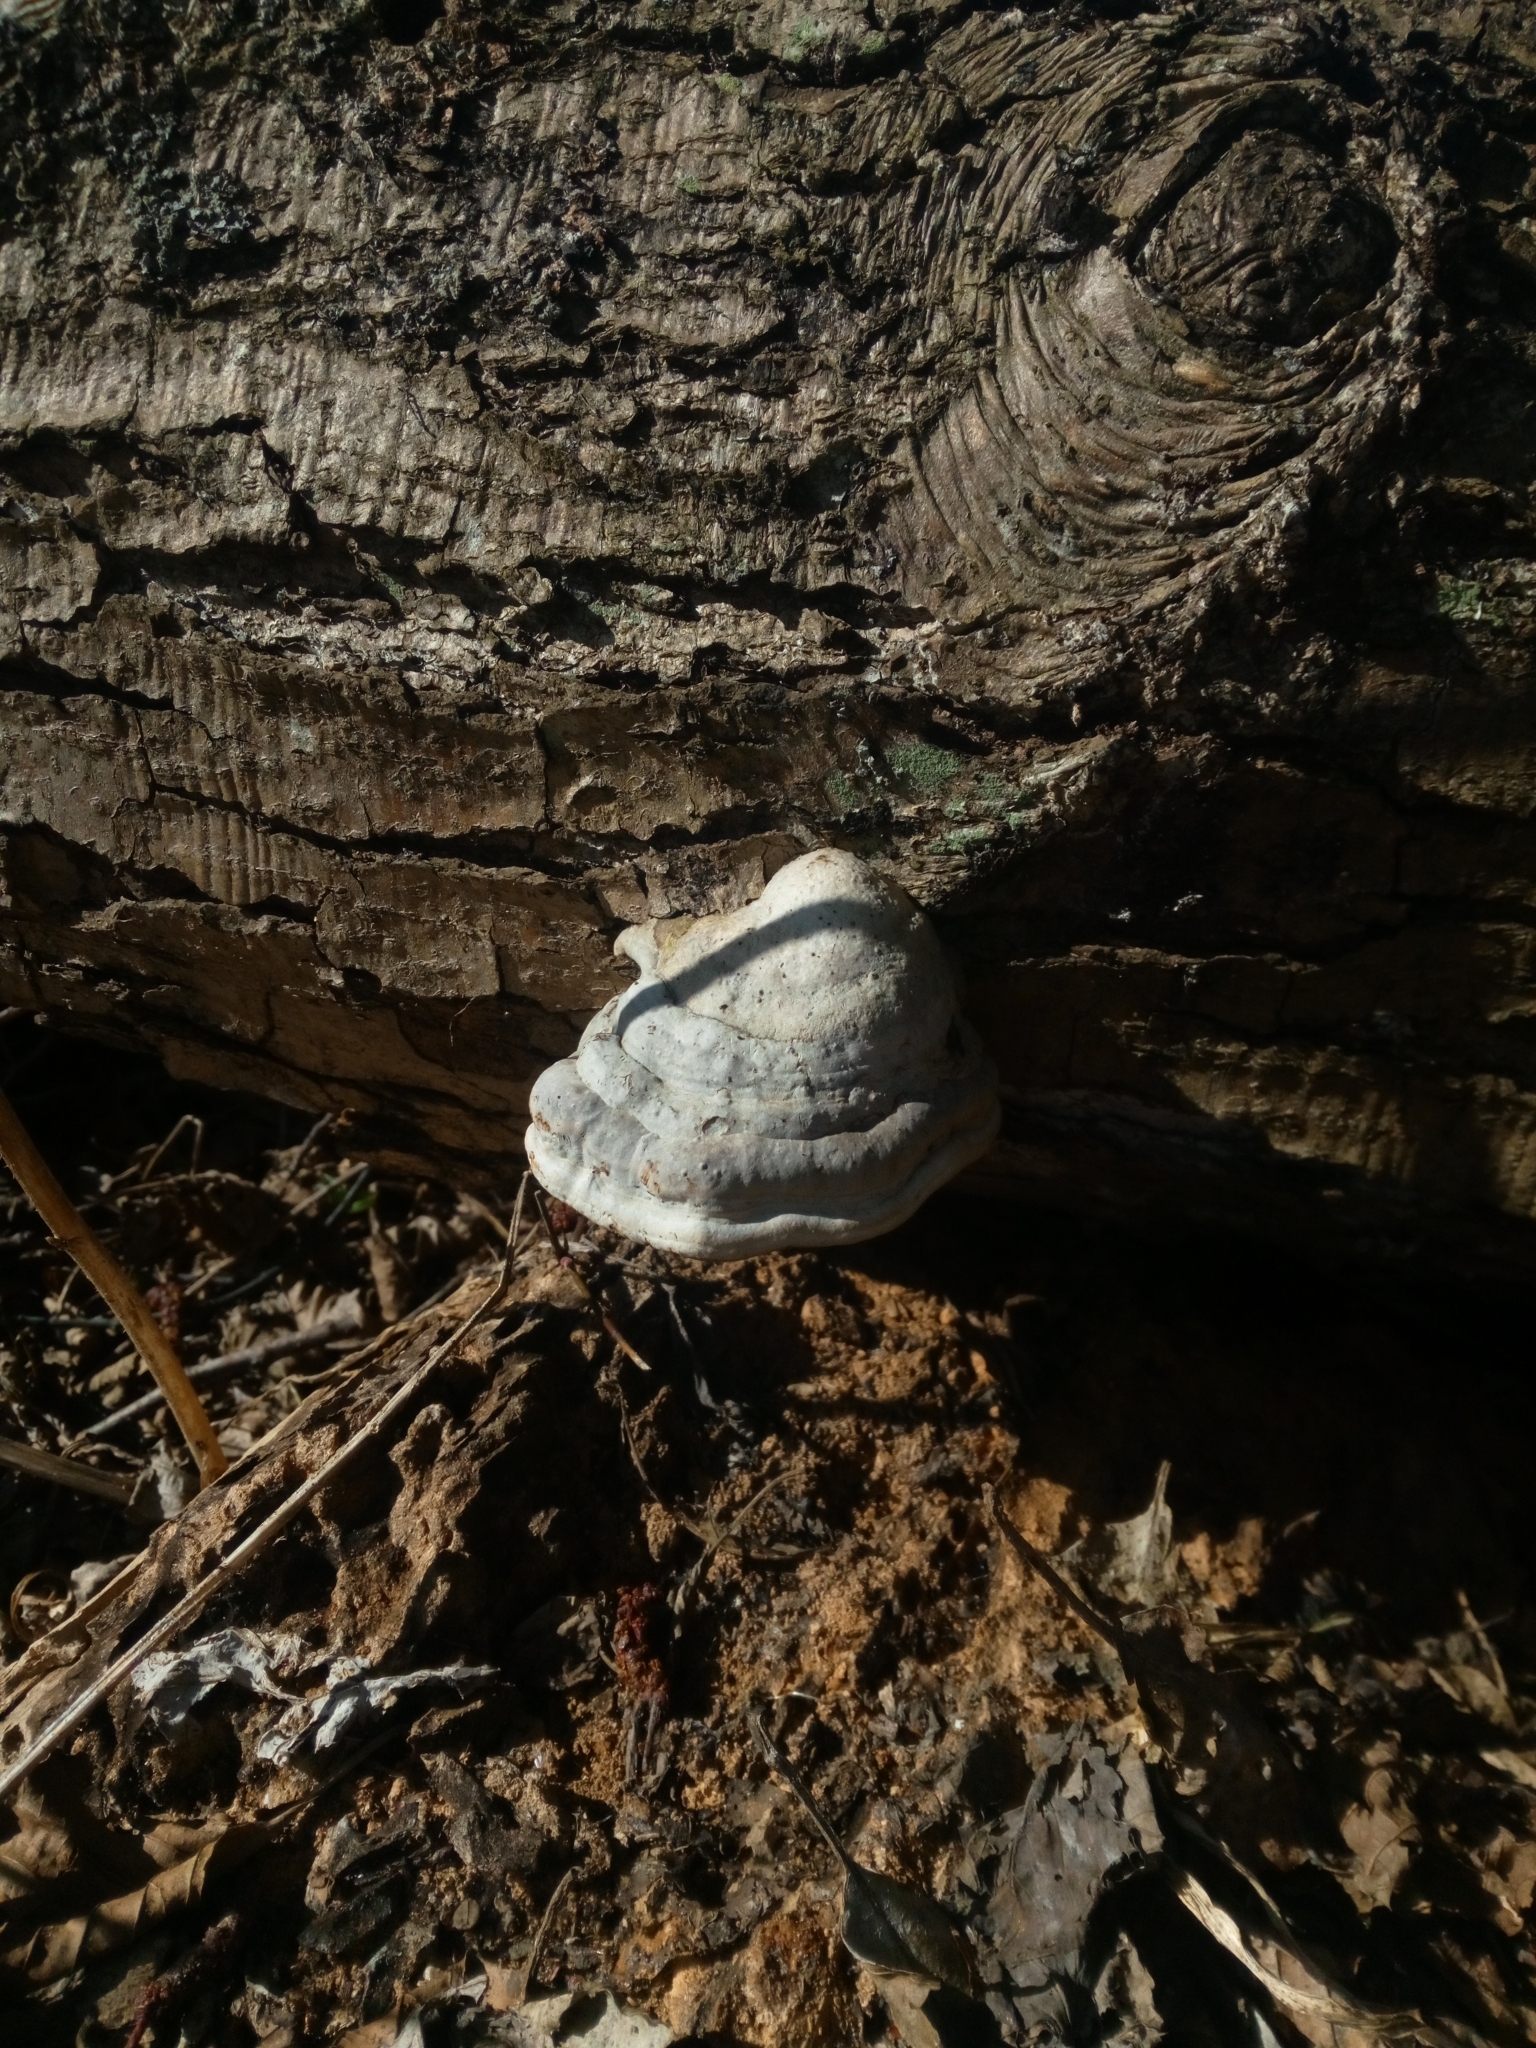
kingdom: Fungi
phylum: Basidiomycota
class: Agaricomycetes
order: Polyporales
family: Polyporaceae
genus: Fomes
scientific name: Fomes fomentarius
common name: Hoof fungus
